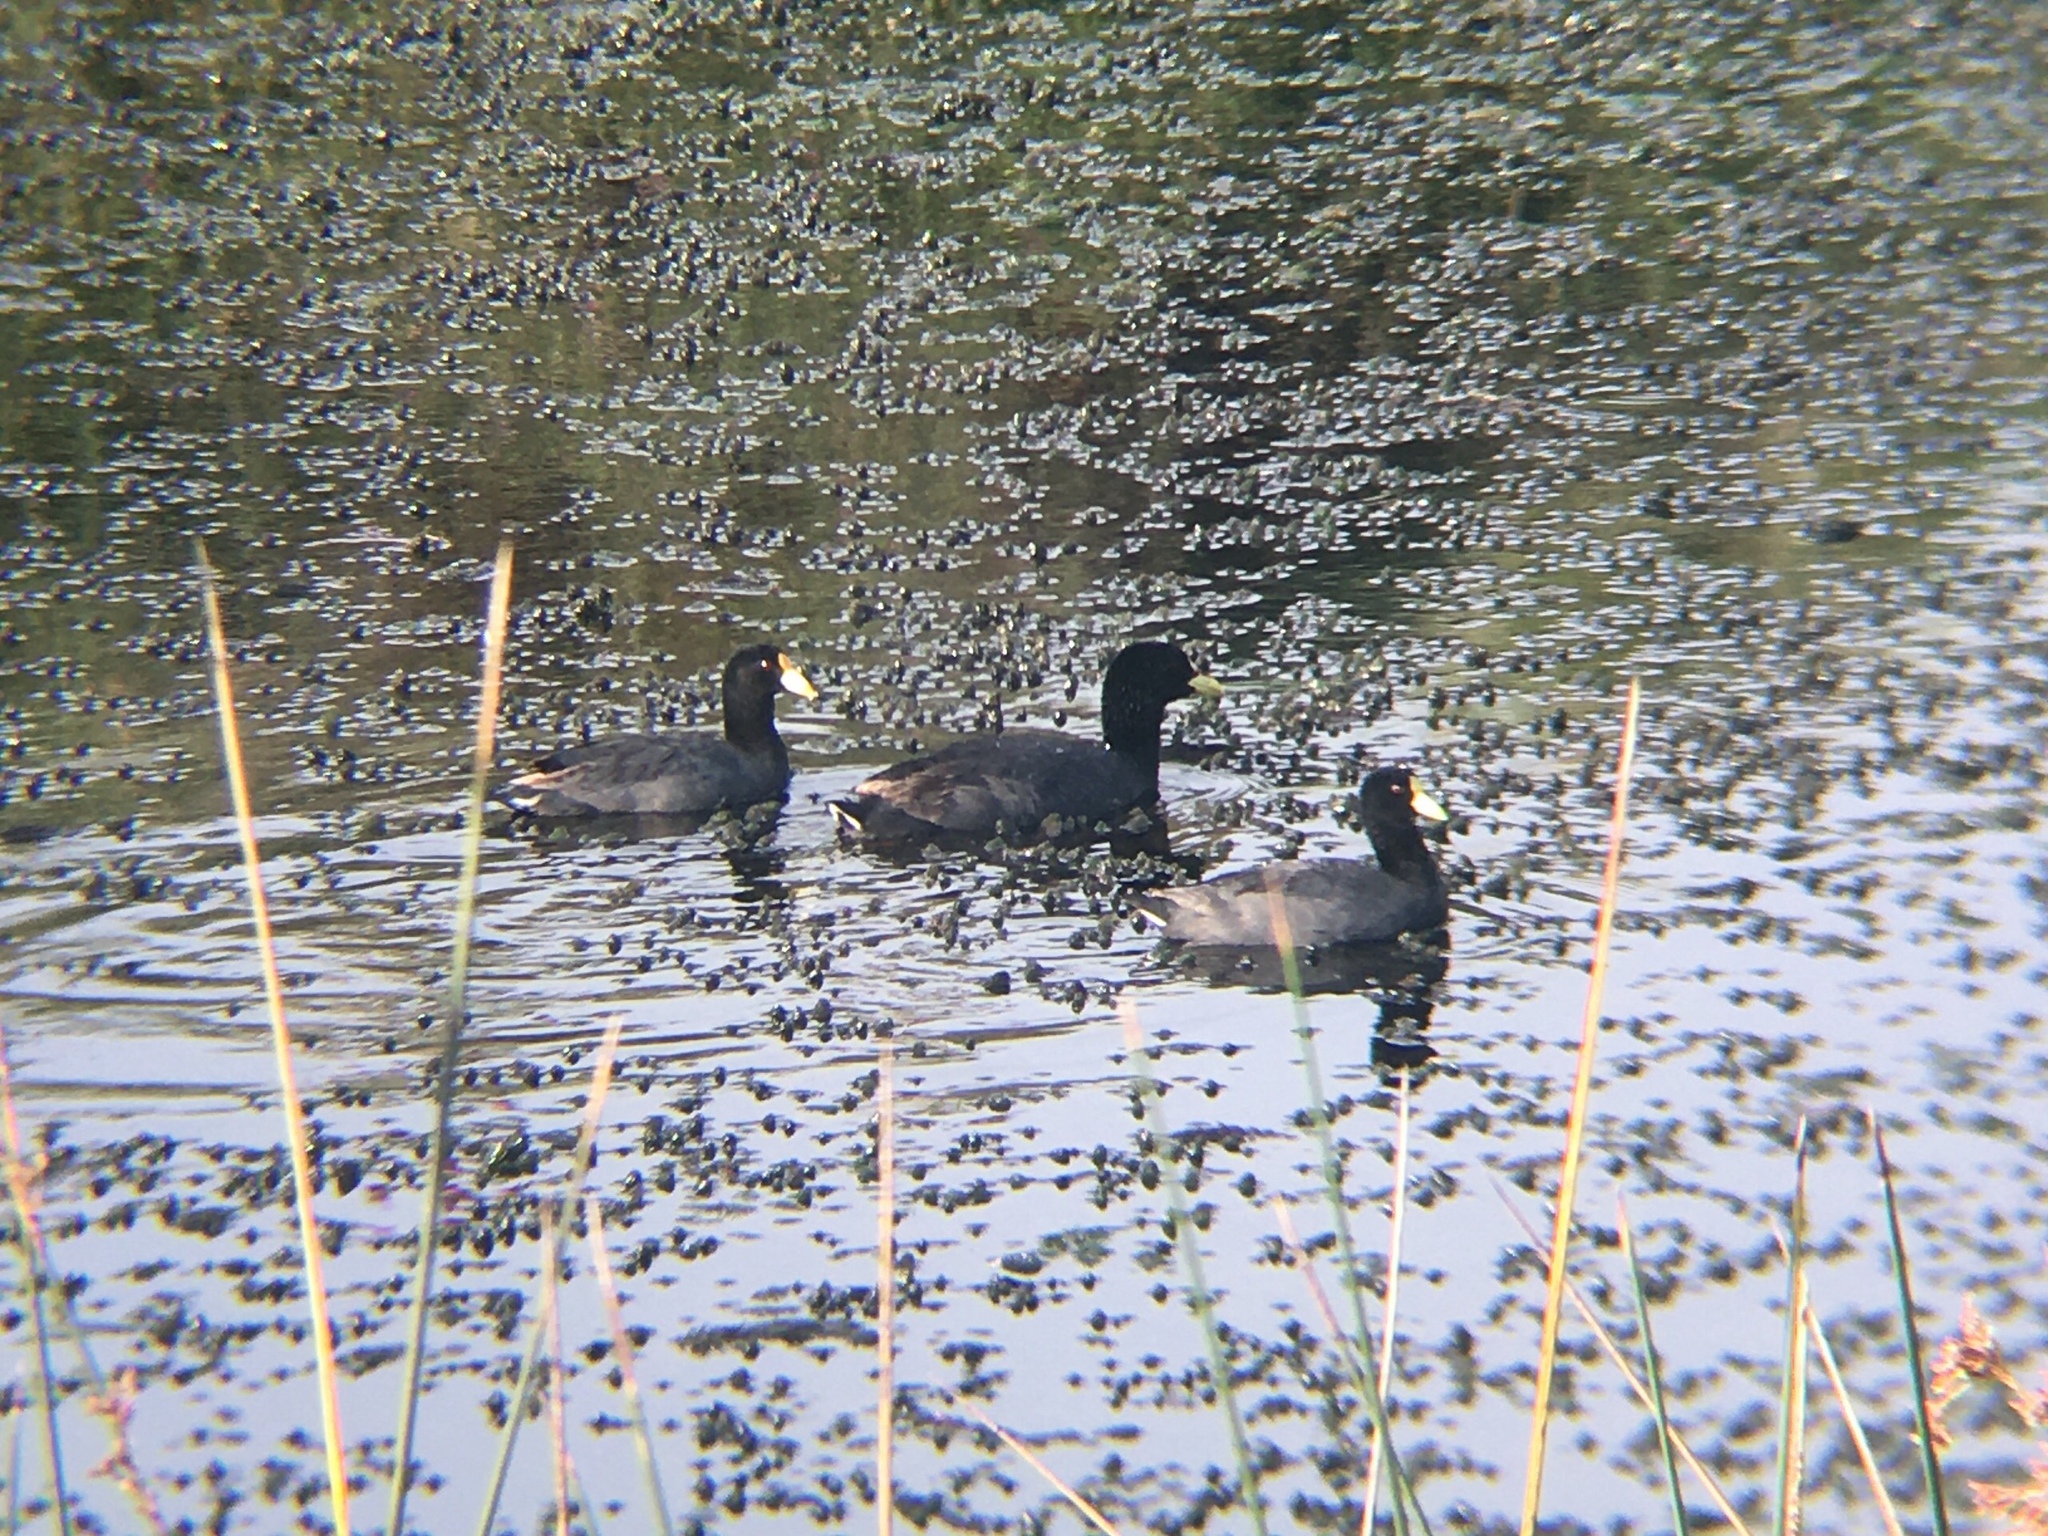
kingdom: Animalia
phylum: Chordata
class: Aves
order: Gruiformes
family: Rallidae
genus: Fulica
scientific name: Fulica leucoptera
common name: White-winged coot
